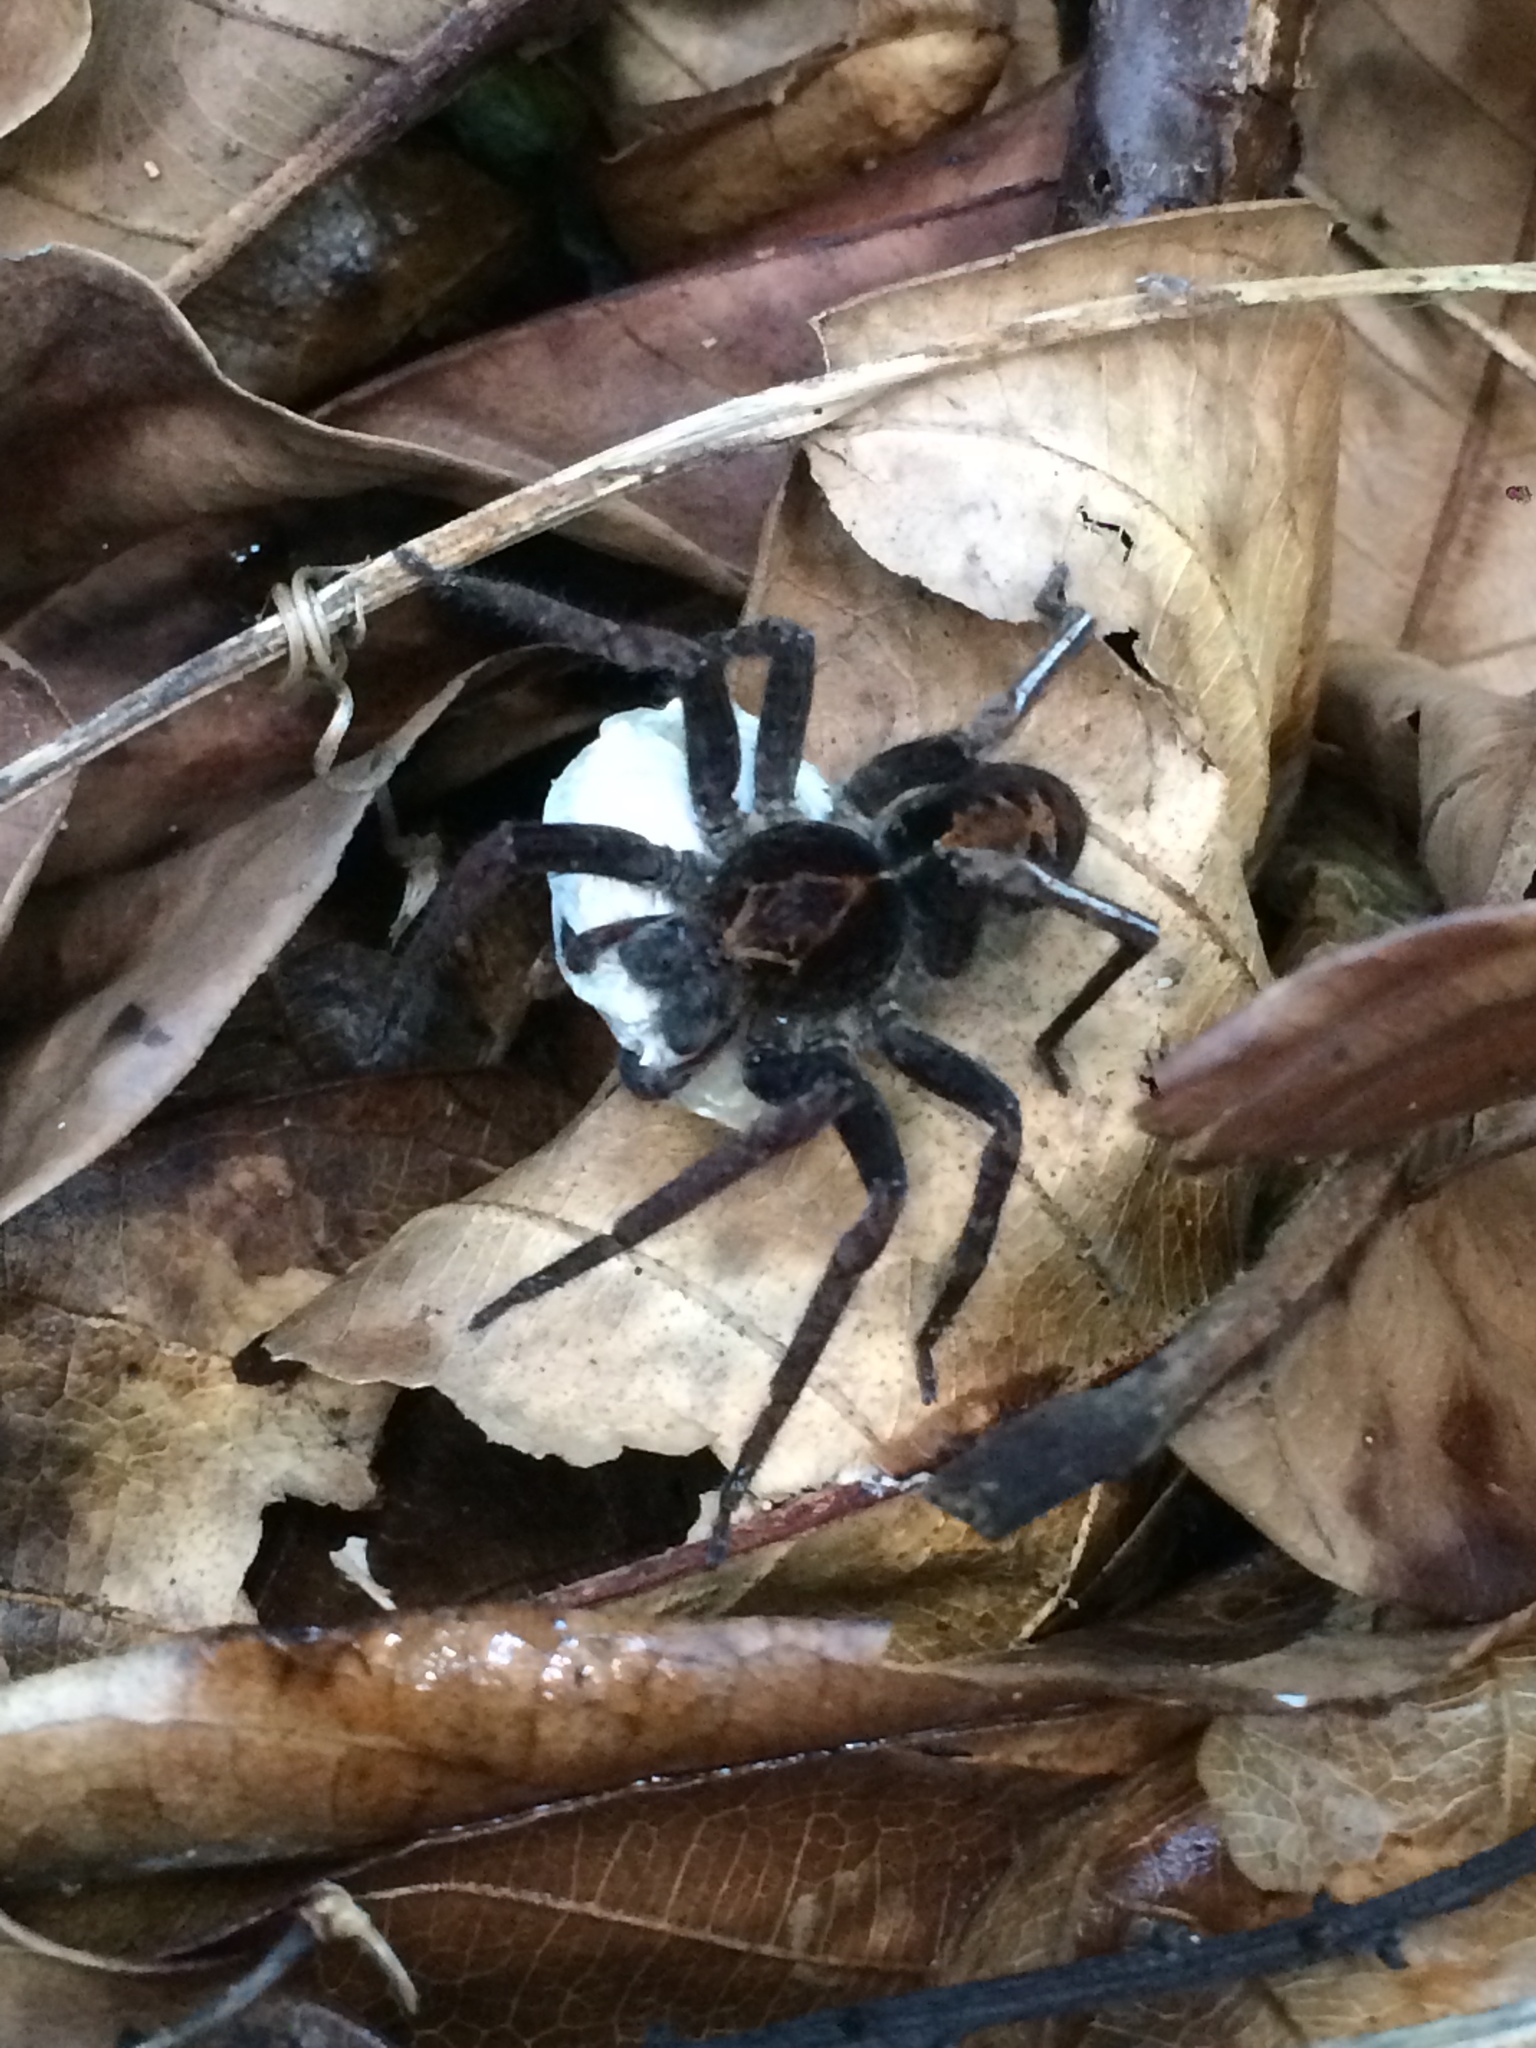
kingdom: Animalia
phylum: Arthropoda
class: Arachnida
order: Araneae
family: Ctenidae
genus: Ctenus
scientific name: Ctenus ornatus
